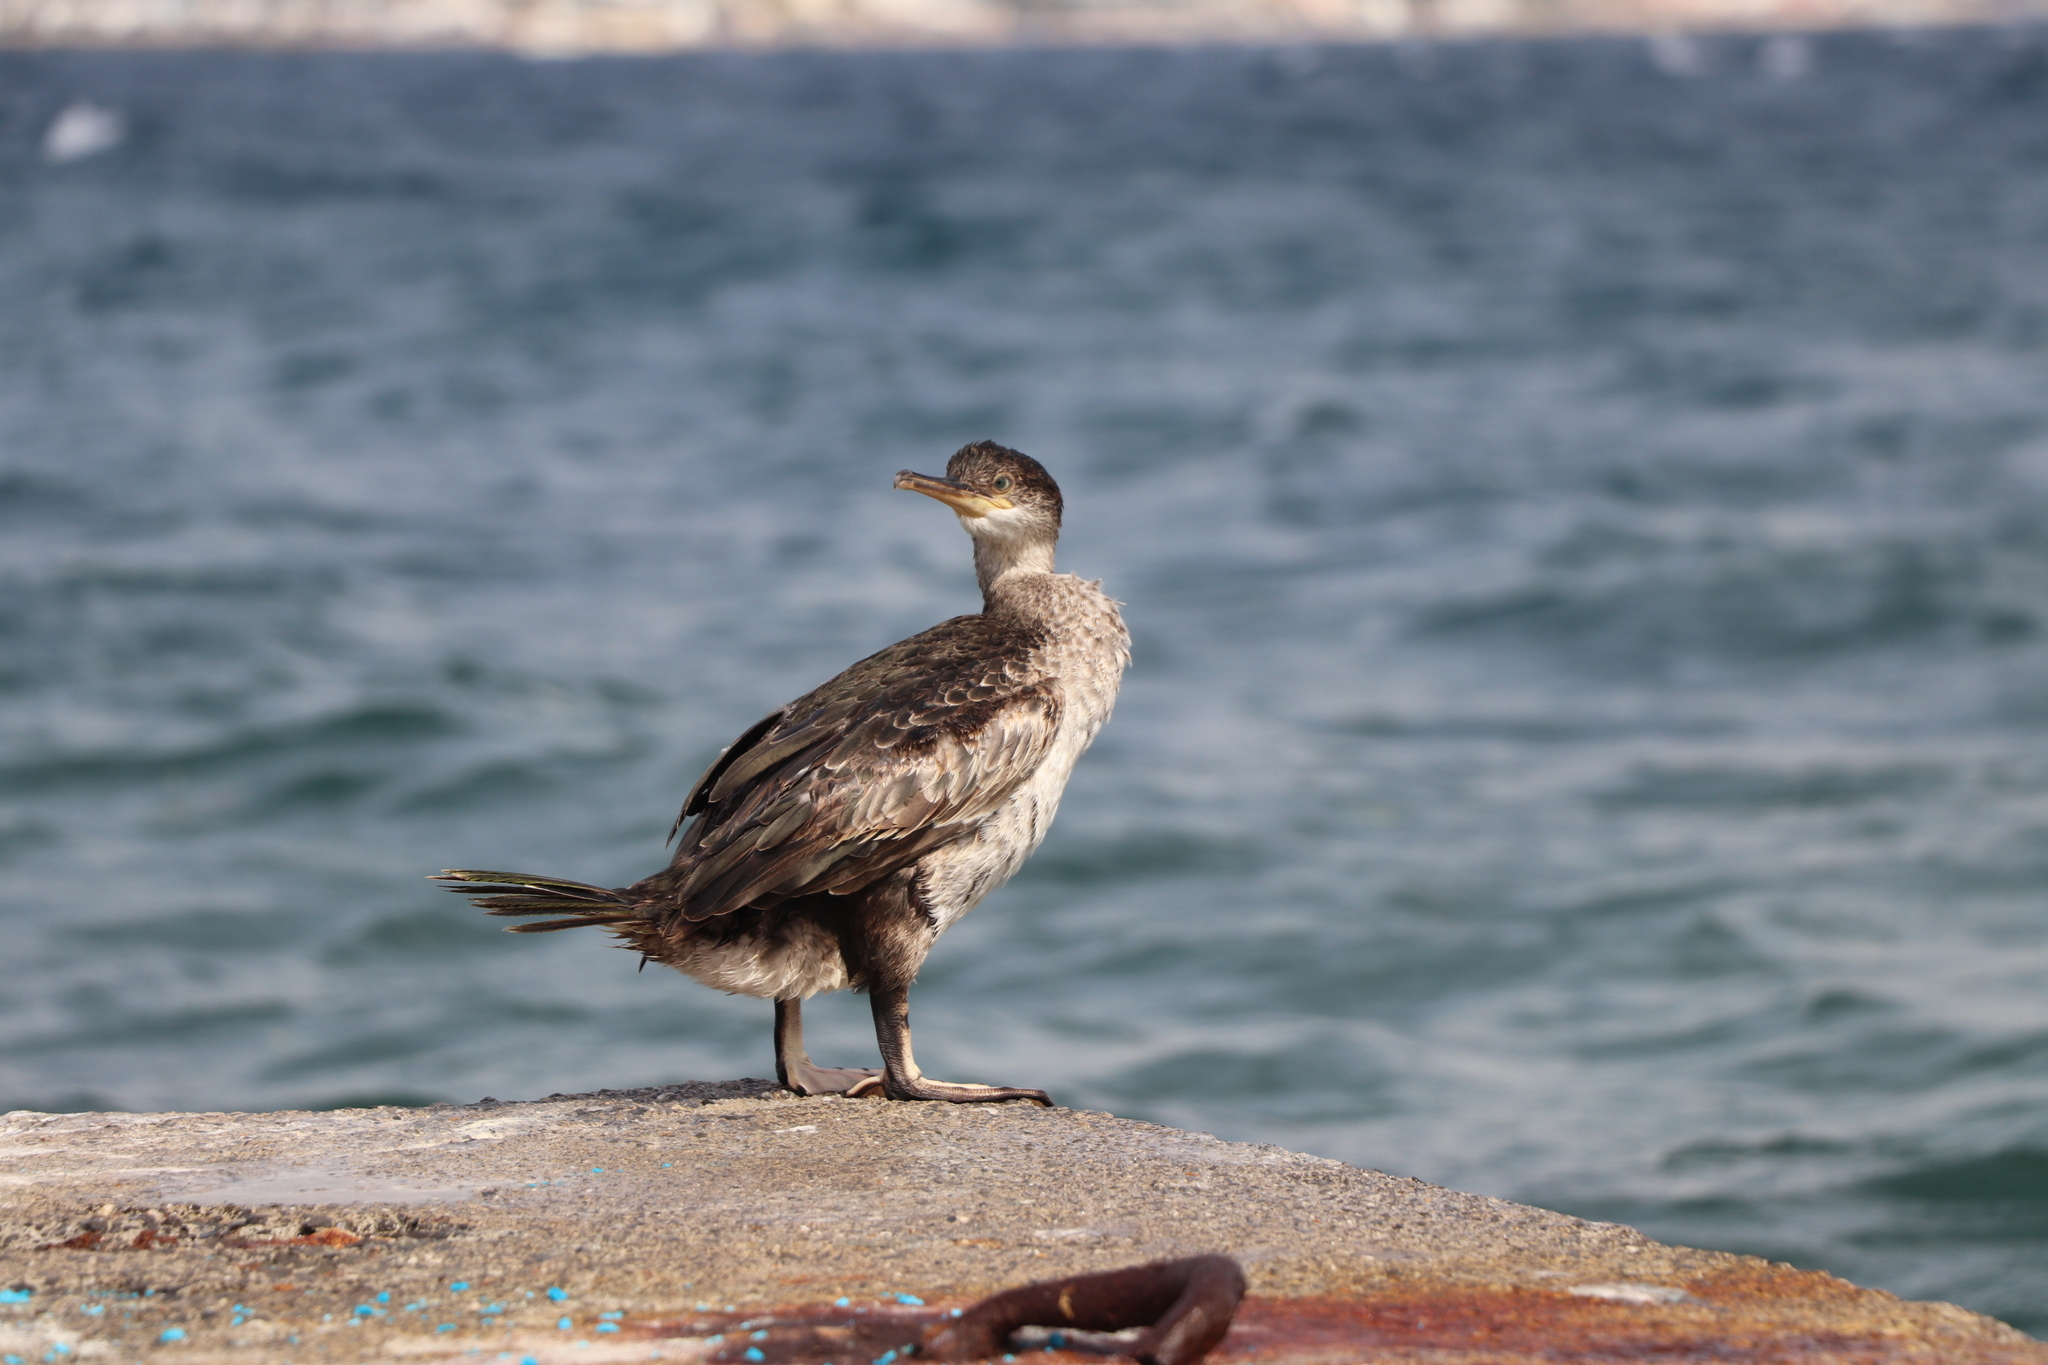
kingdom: Animalia
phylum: Chordata
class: Aves
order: Suliformes
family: Phalacrocoracidae
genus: Phalacrocorax
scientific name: Phalacrocorax aristotelis
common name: European shag
